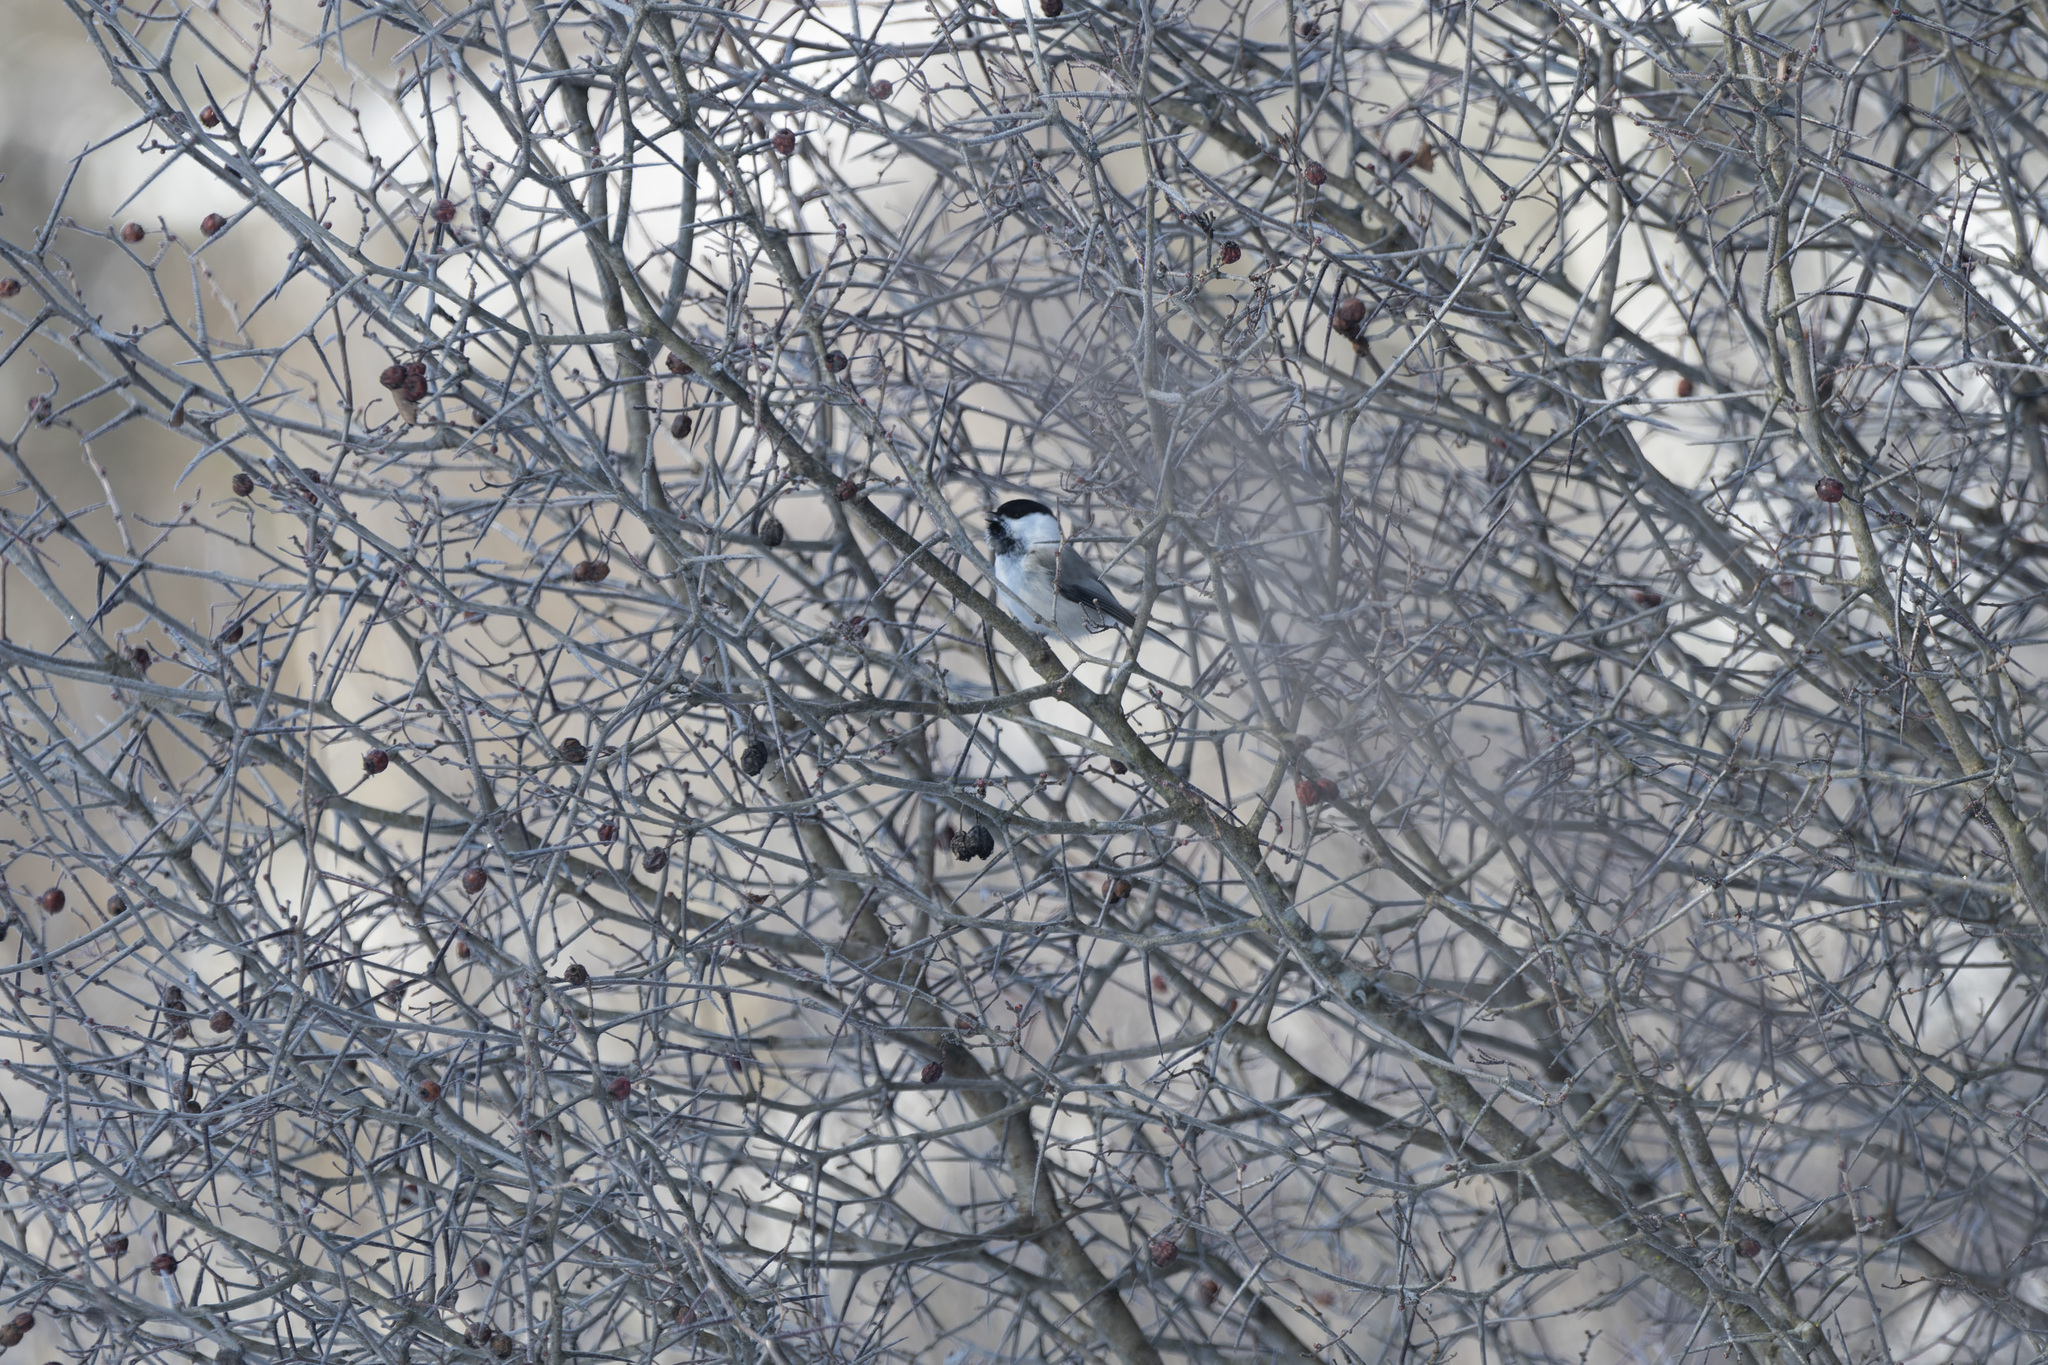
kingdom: Animalia
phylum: Chordata
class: Aves
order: Passeriformes
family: Paridae
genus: Poecile
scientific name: Poecile montanus
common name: Willow tit
